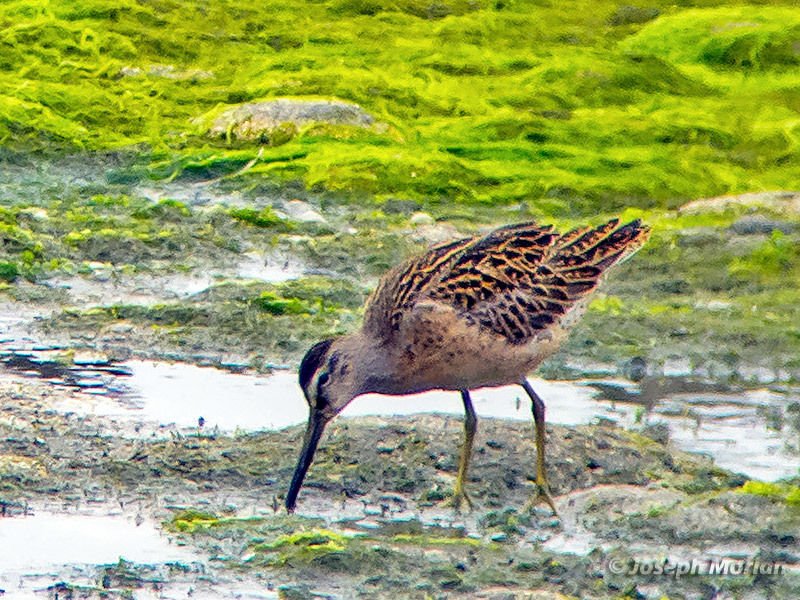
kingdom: Animalia
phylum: Chordata
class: Aves
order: Charadriiformes
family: Scolopacidae
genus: Limnodromus
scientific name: Limnodromus griseus
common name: Short-billed dowitcher
